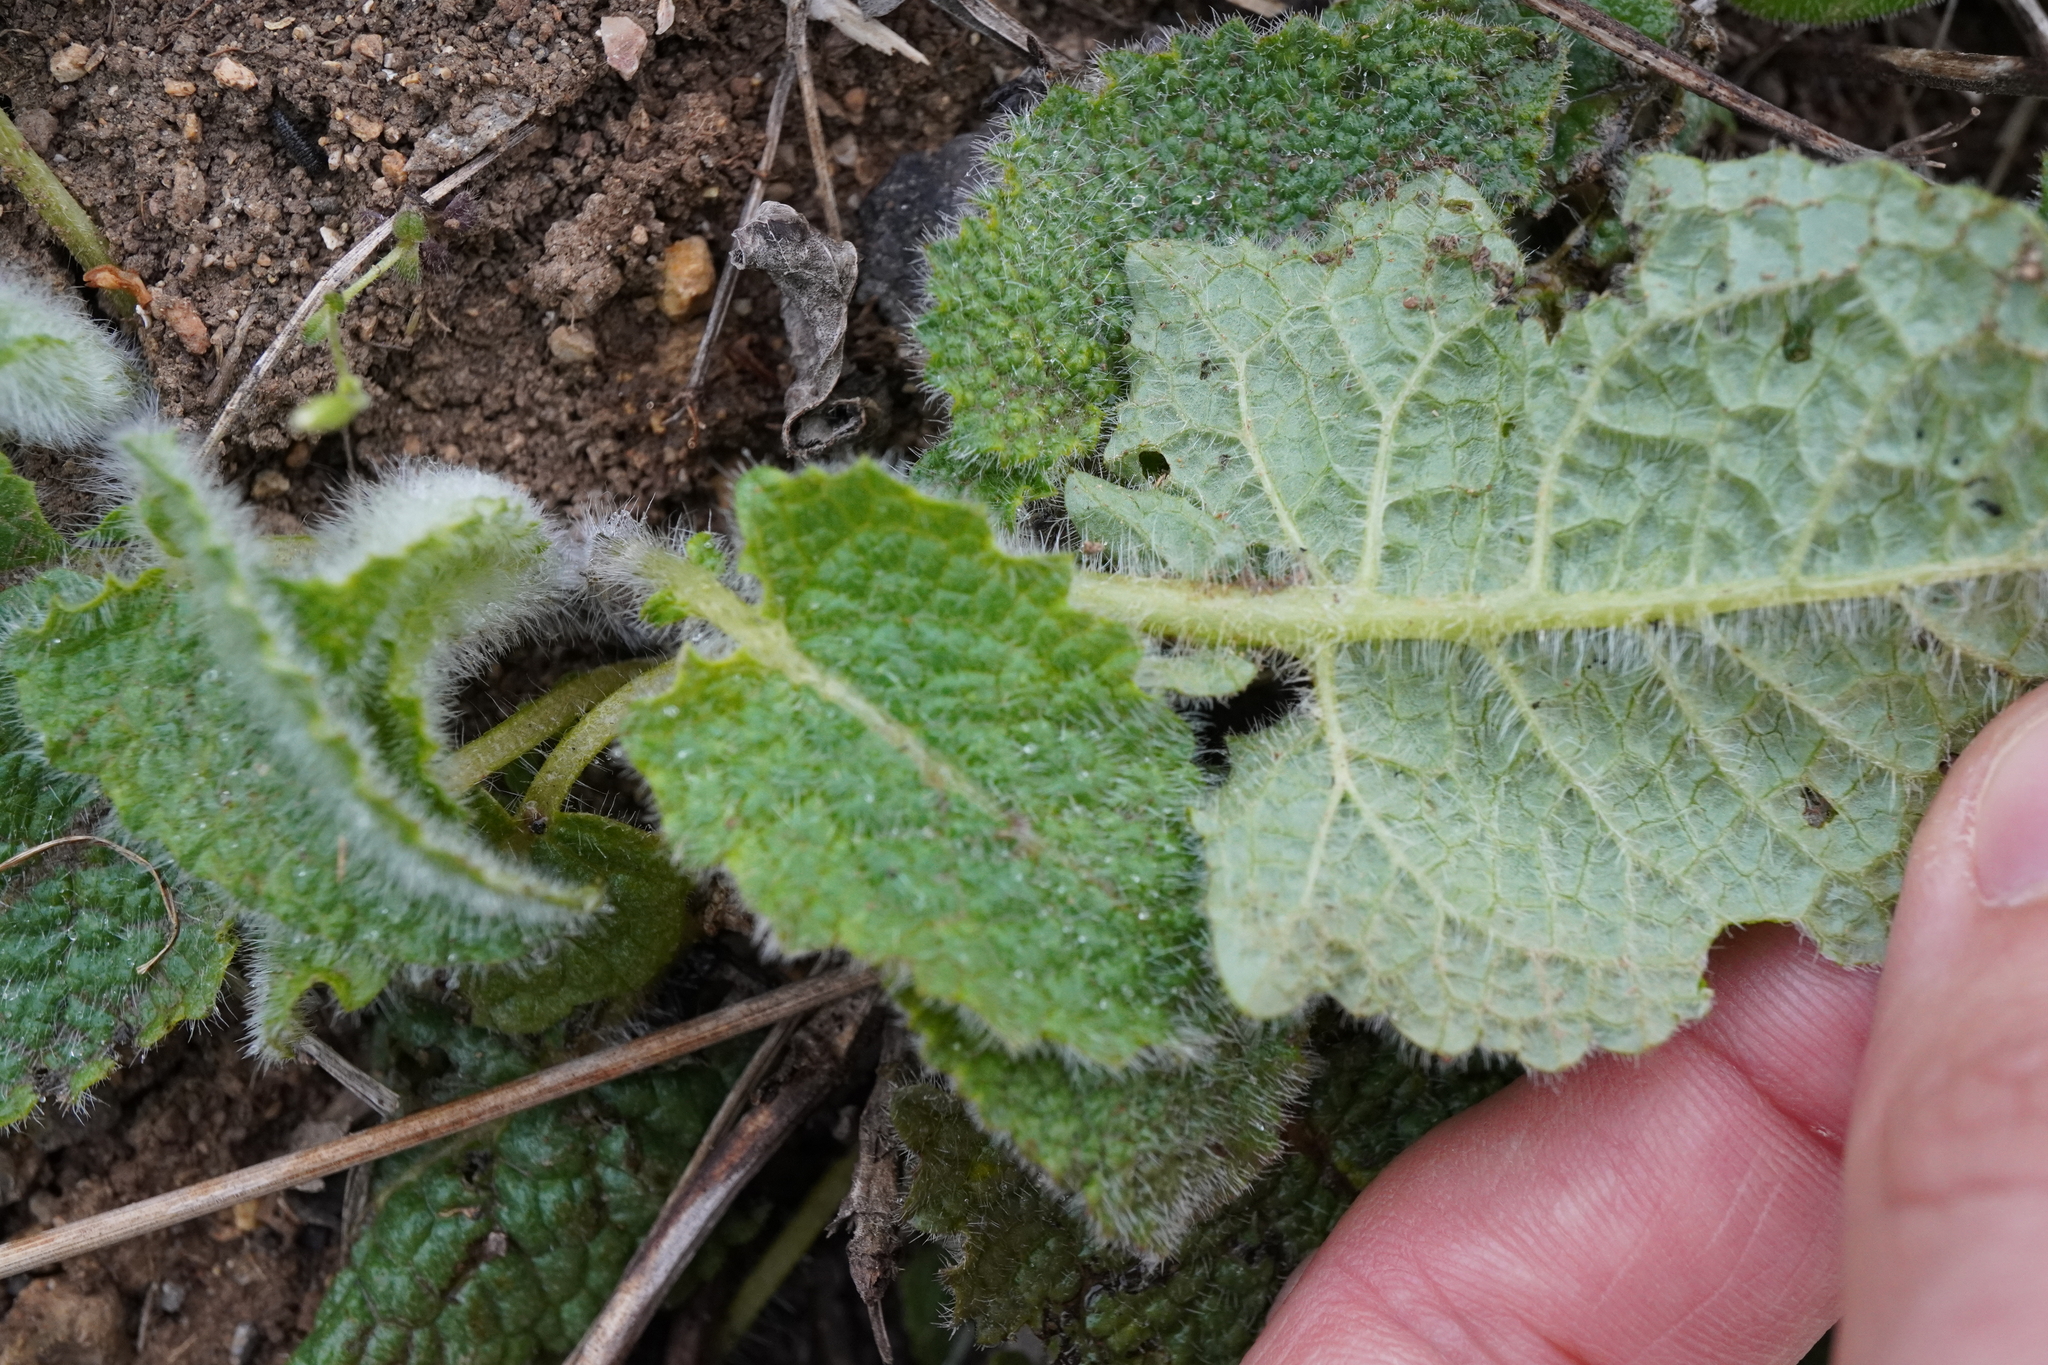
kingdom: Plantae
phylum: Tracheophyta
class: Magnoliopsida
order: Lamiales
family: Lamiaceae
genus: Salvia
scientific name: Salvia verticillata
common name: Whorled clary
